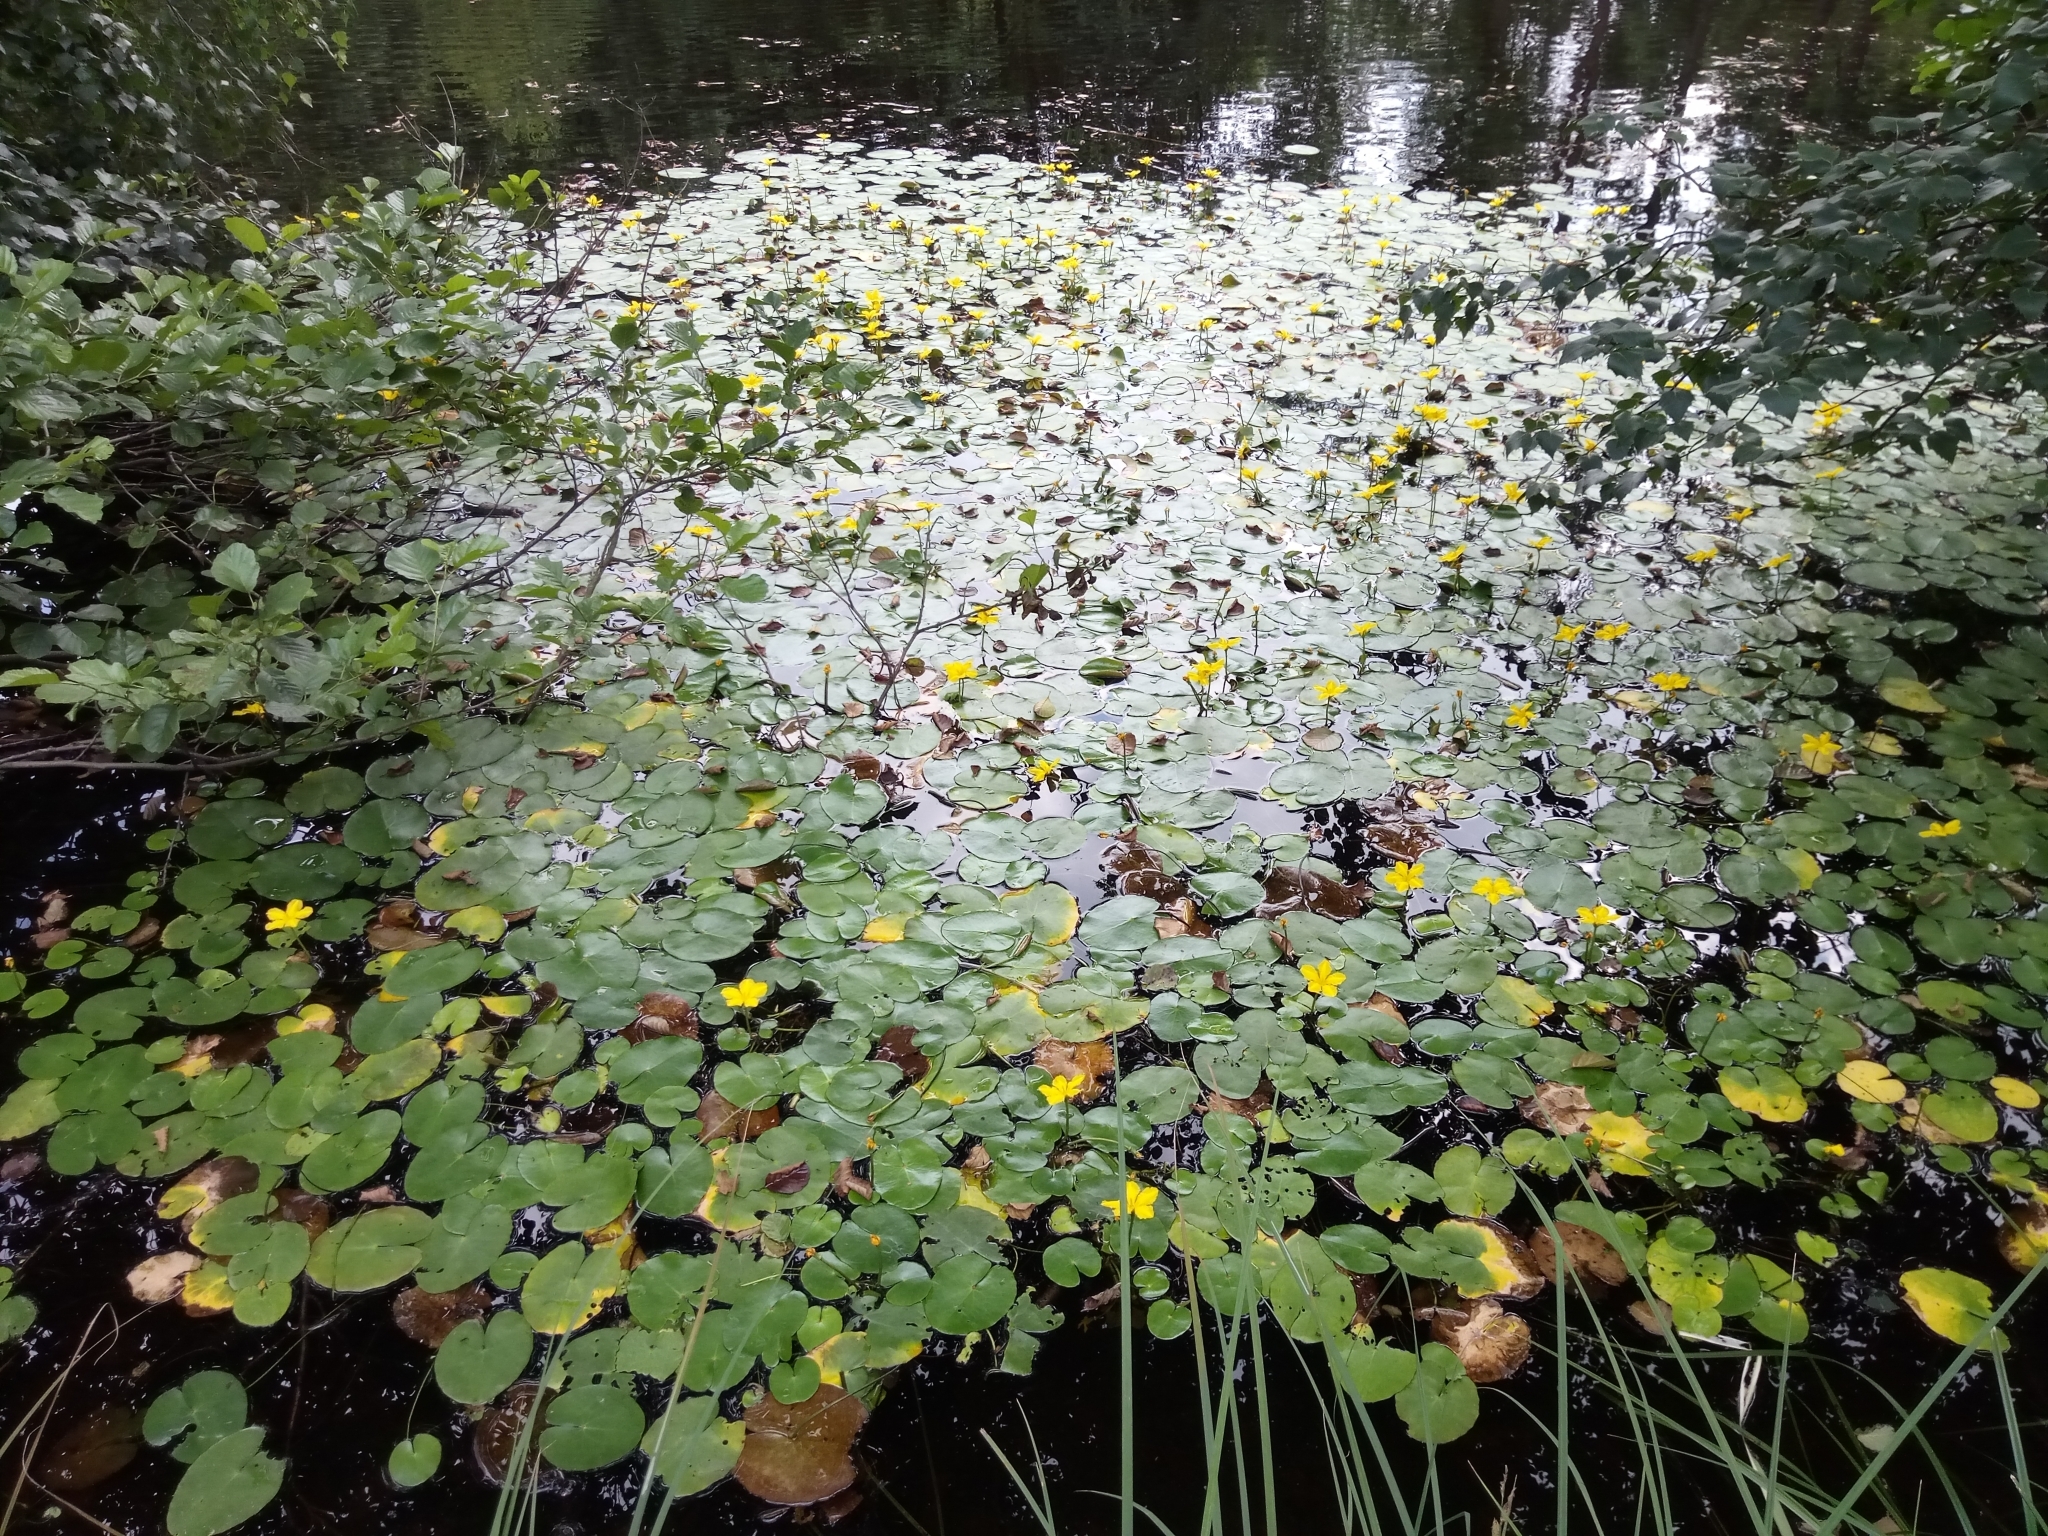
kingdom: Plantae
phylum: Tracheophyta
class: Magnoliopsida
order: Asterales
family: Menyanthaceae
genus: Nymphoides
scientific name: Nymphoides peltata
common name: Fringed water-lily
